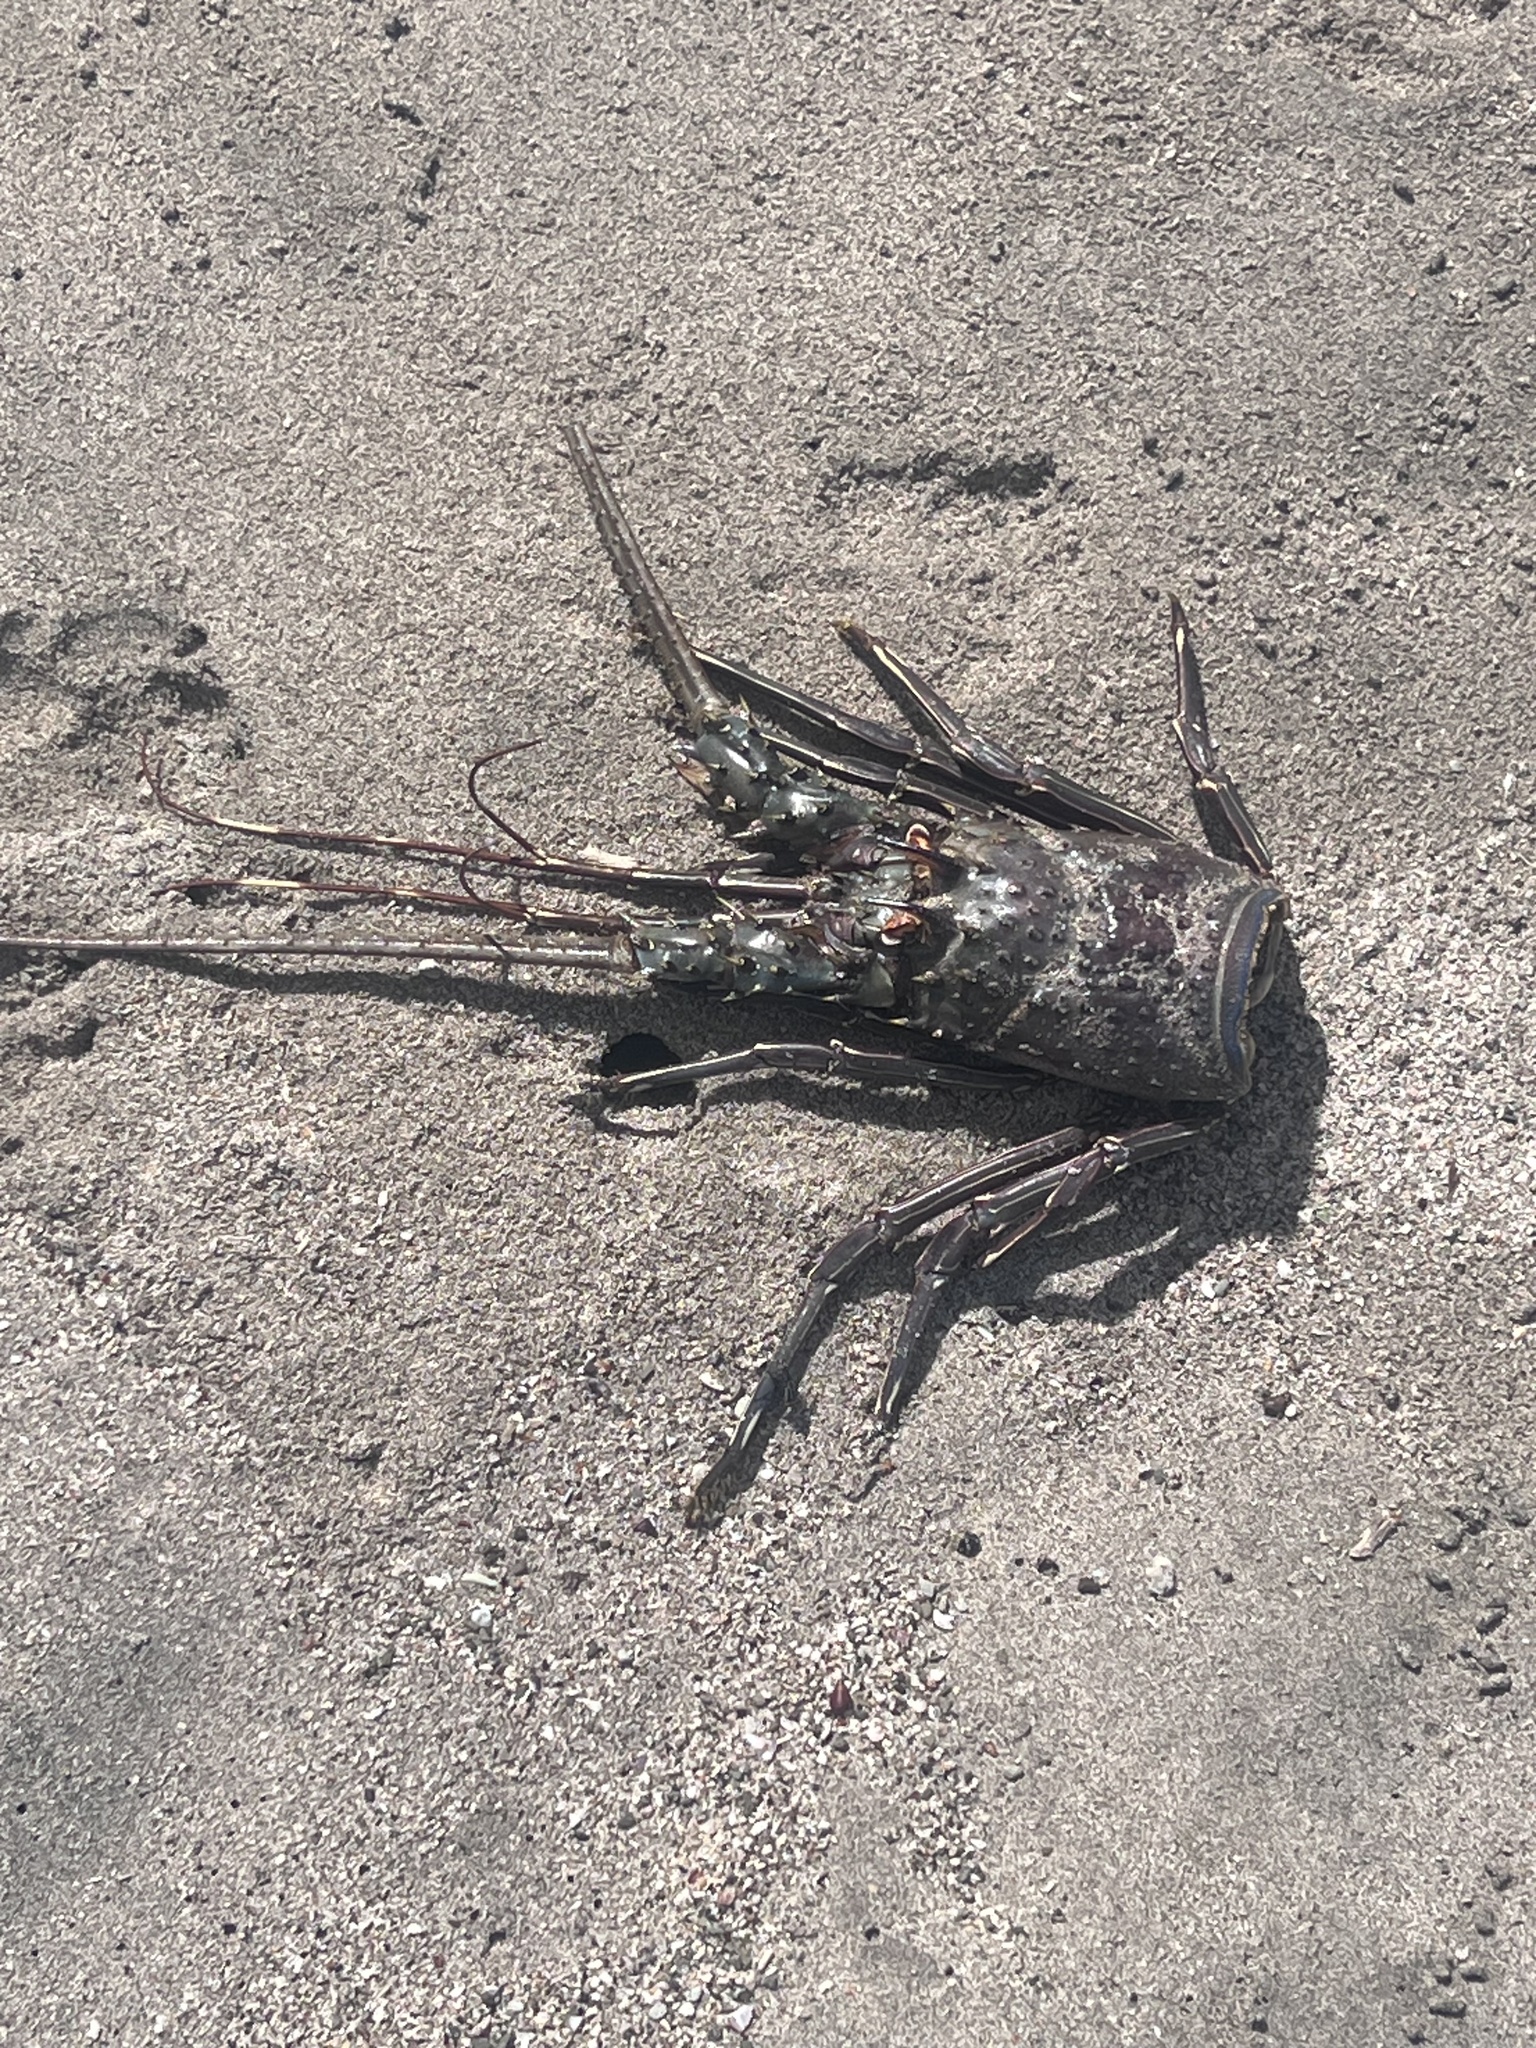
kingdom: Animalia
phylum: Arthropoda
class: Malacostraca
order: Decapoda
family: Palinuridae
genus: Panulirus
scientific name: Panulirus gracilis
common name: Green spiny lobster
